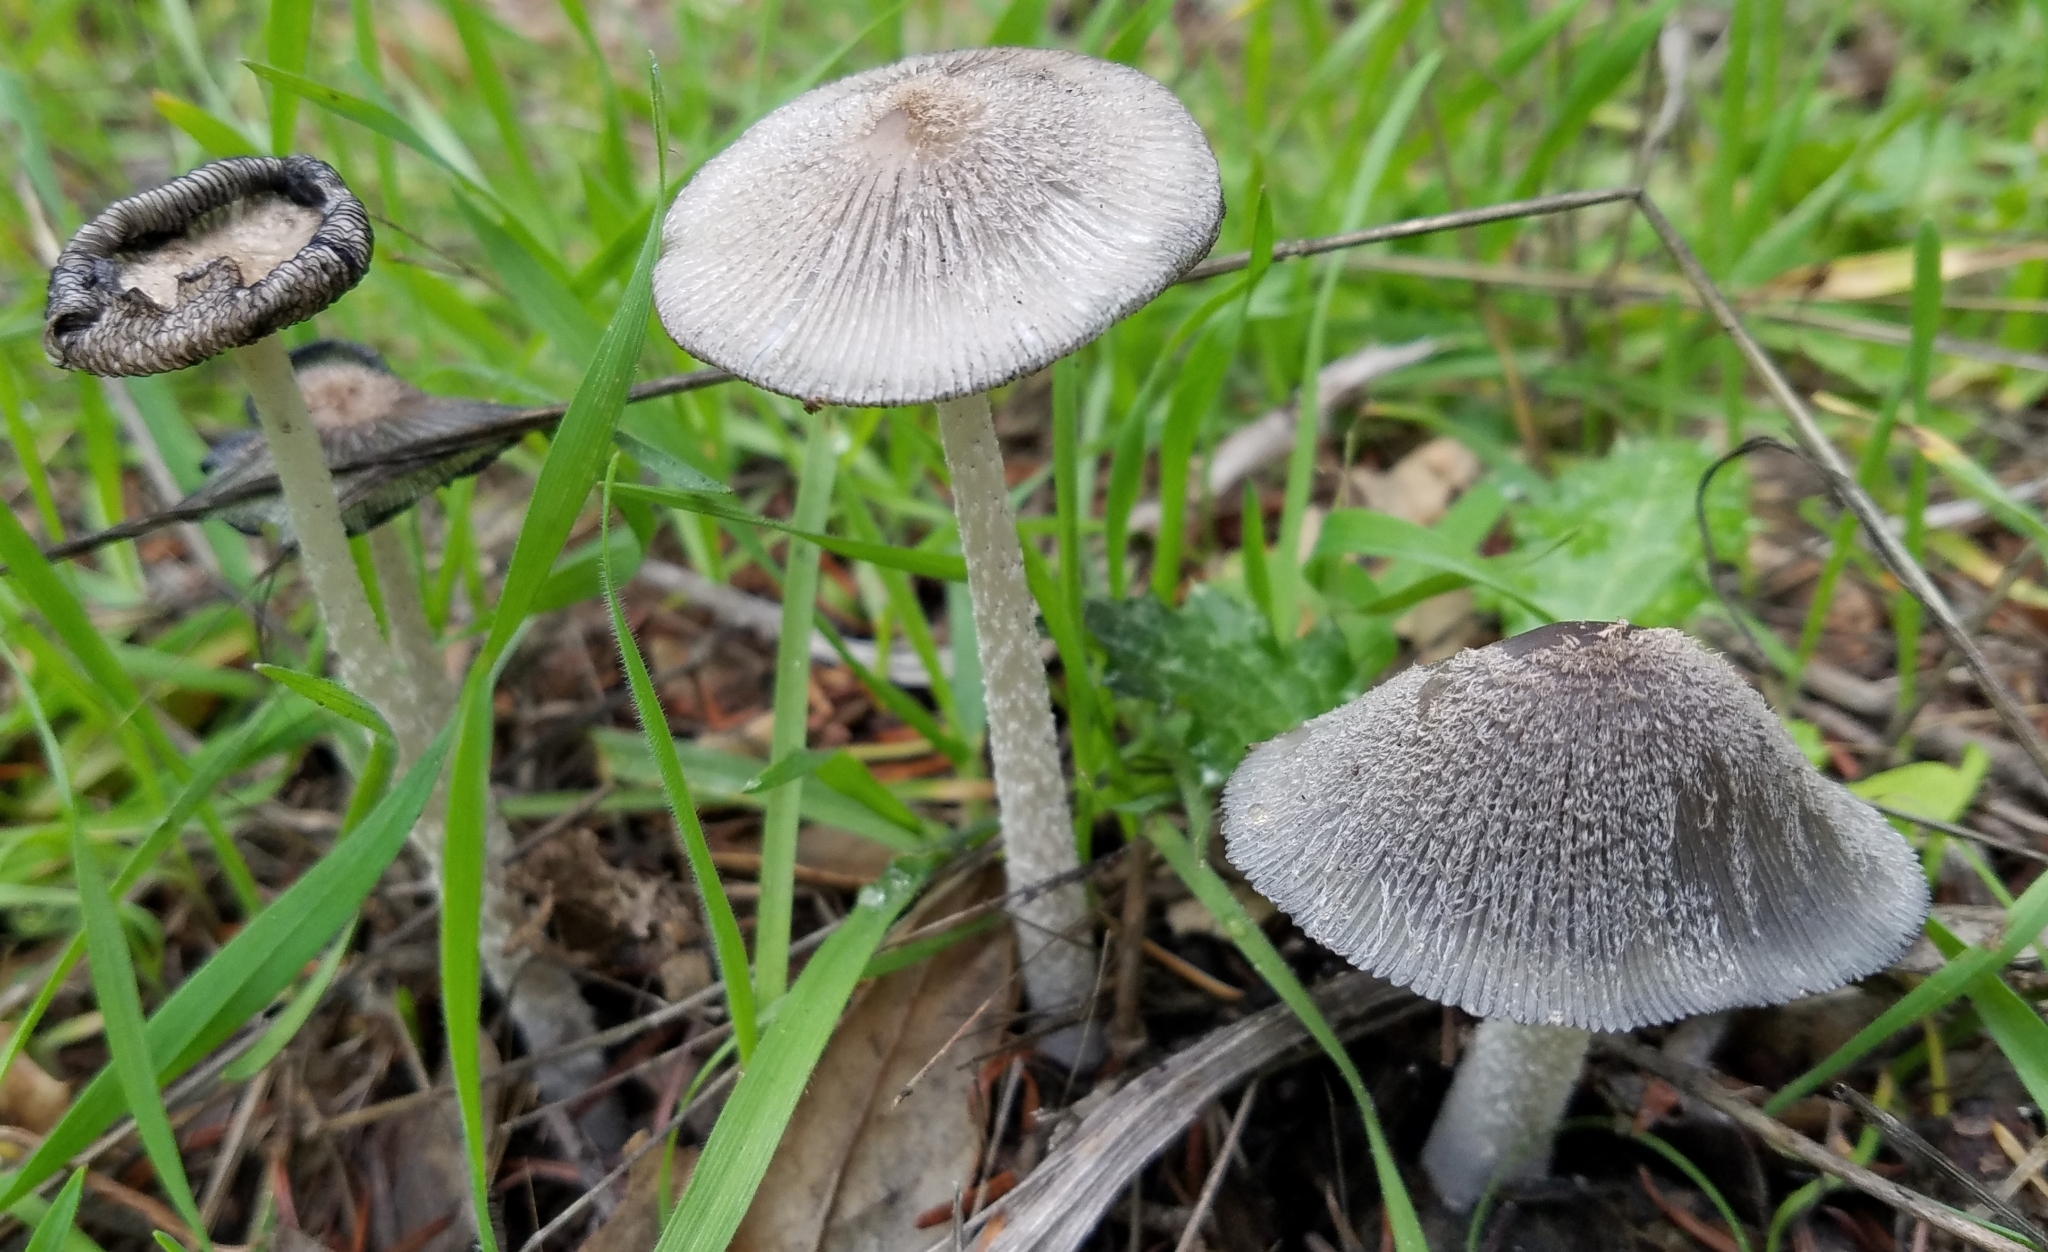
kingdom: Fungi
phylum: Basidiomycota
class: Agaricomycetes
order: Agaricales
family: Psathyrellaceae
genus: Coprinopsis
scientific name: Coprinopsis lagopus
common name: Hare'sfoot inkcap
